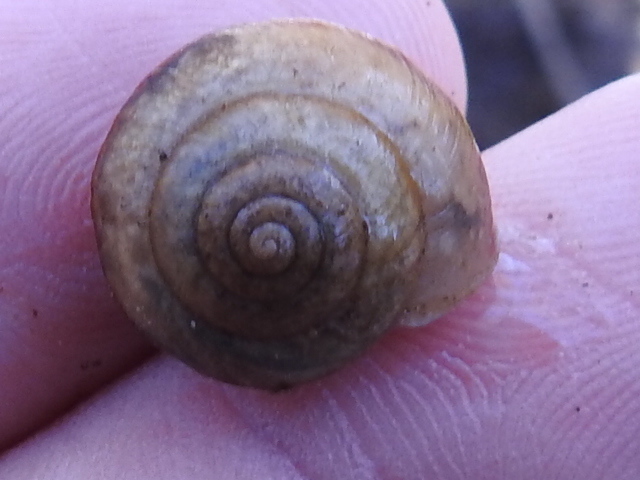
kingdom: Animalia
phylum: Mollusca
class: Gastropoda
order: Stylommatophora
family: Camaenidae
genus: Bradybaena
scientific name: Bradybaena similaris
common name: Asian trampsnail
